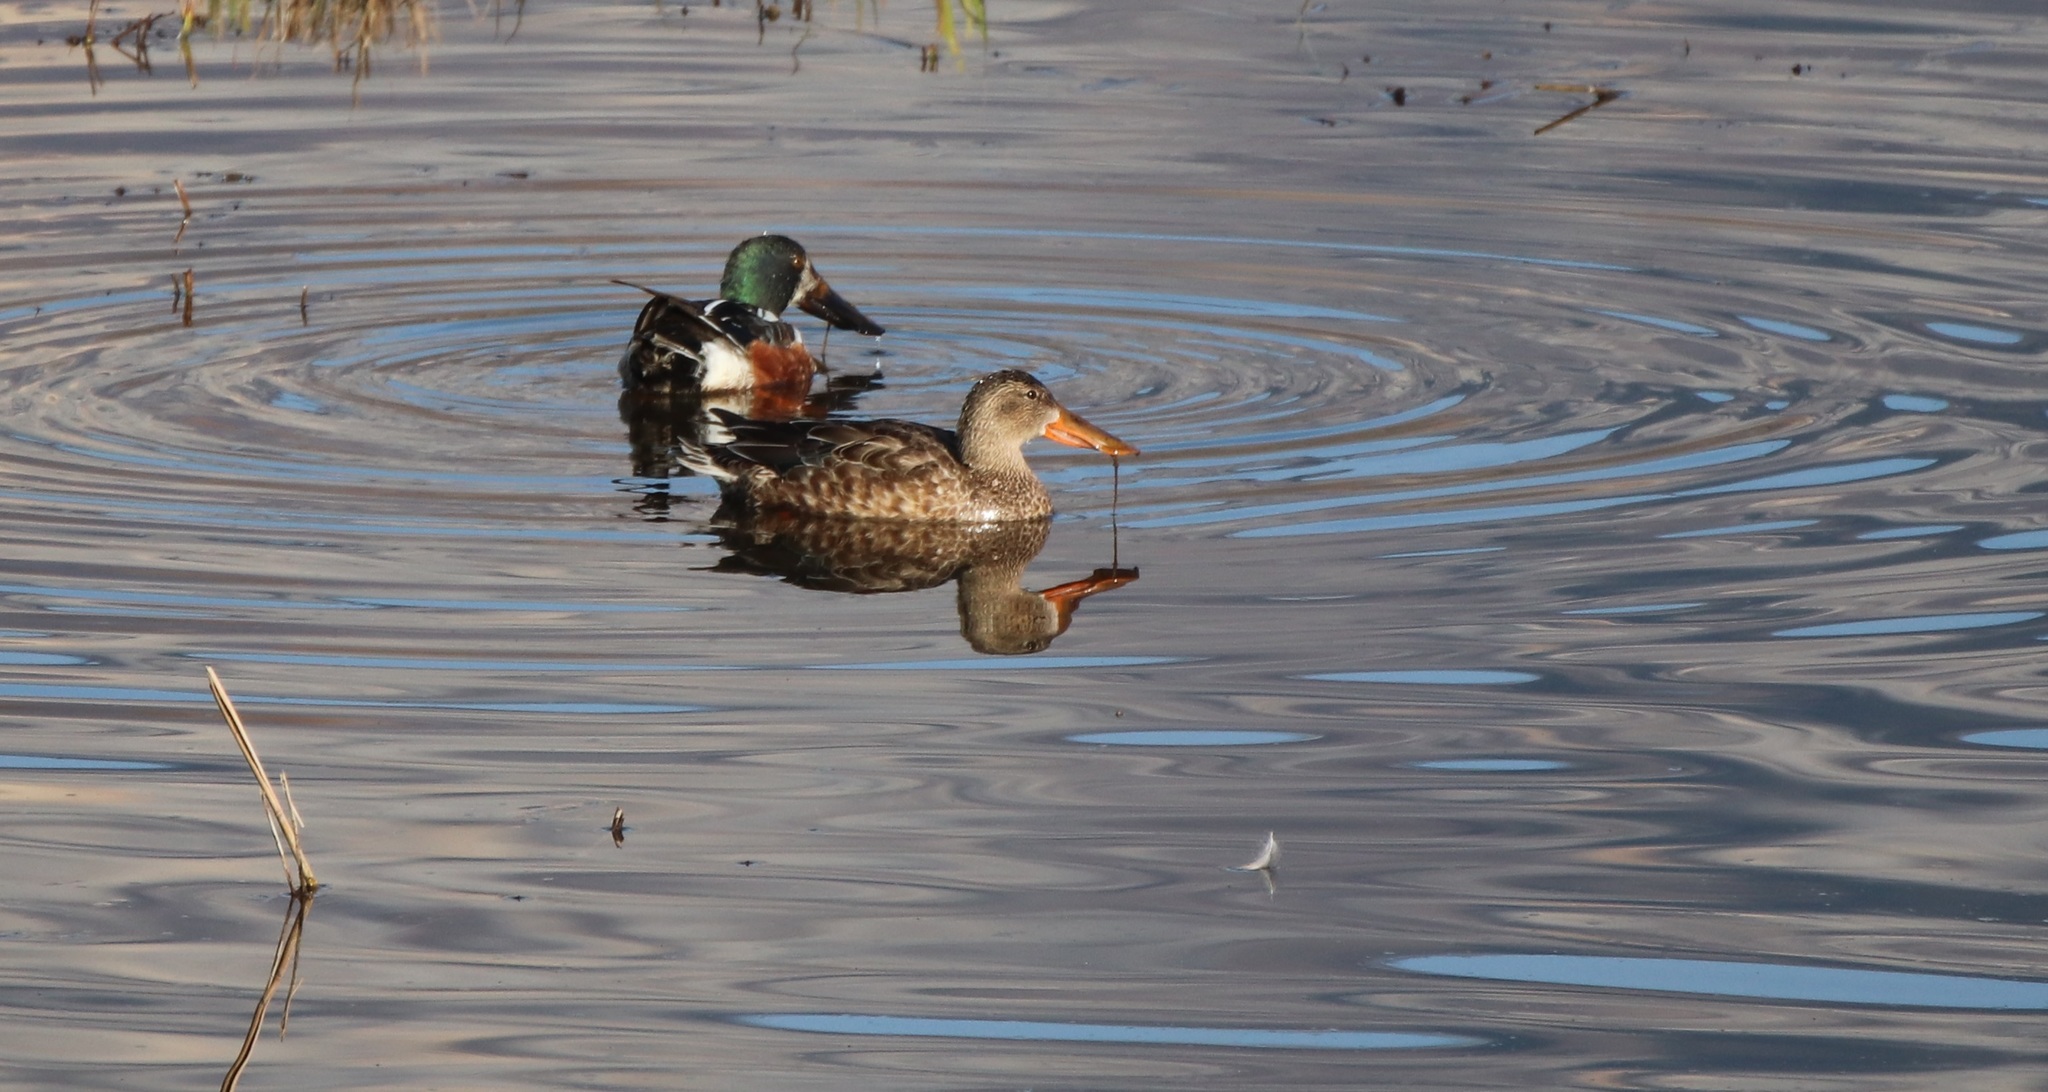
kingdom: Animalia
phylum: Chordata
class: Aves
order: Anseriformes
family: Anatidae
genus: Spatula
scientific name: Spatula clypeata
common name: Northern shoveler
